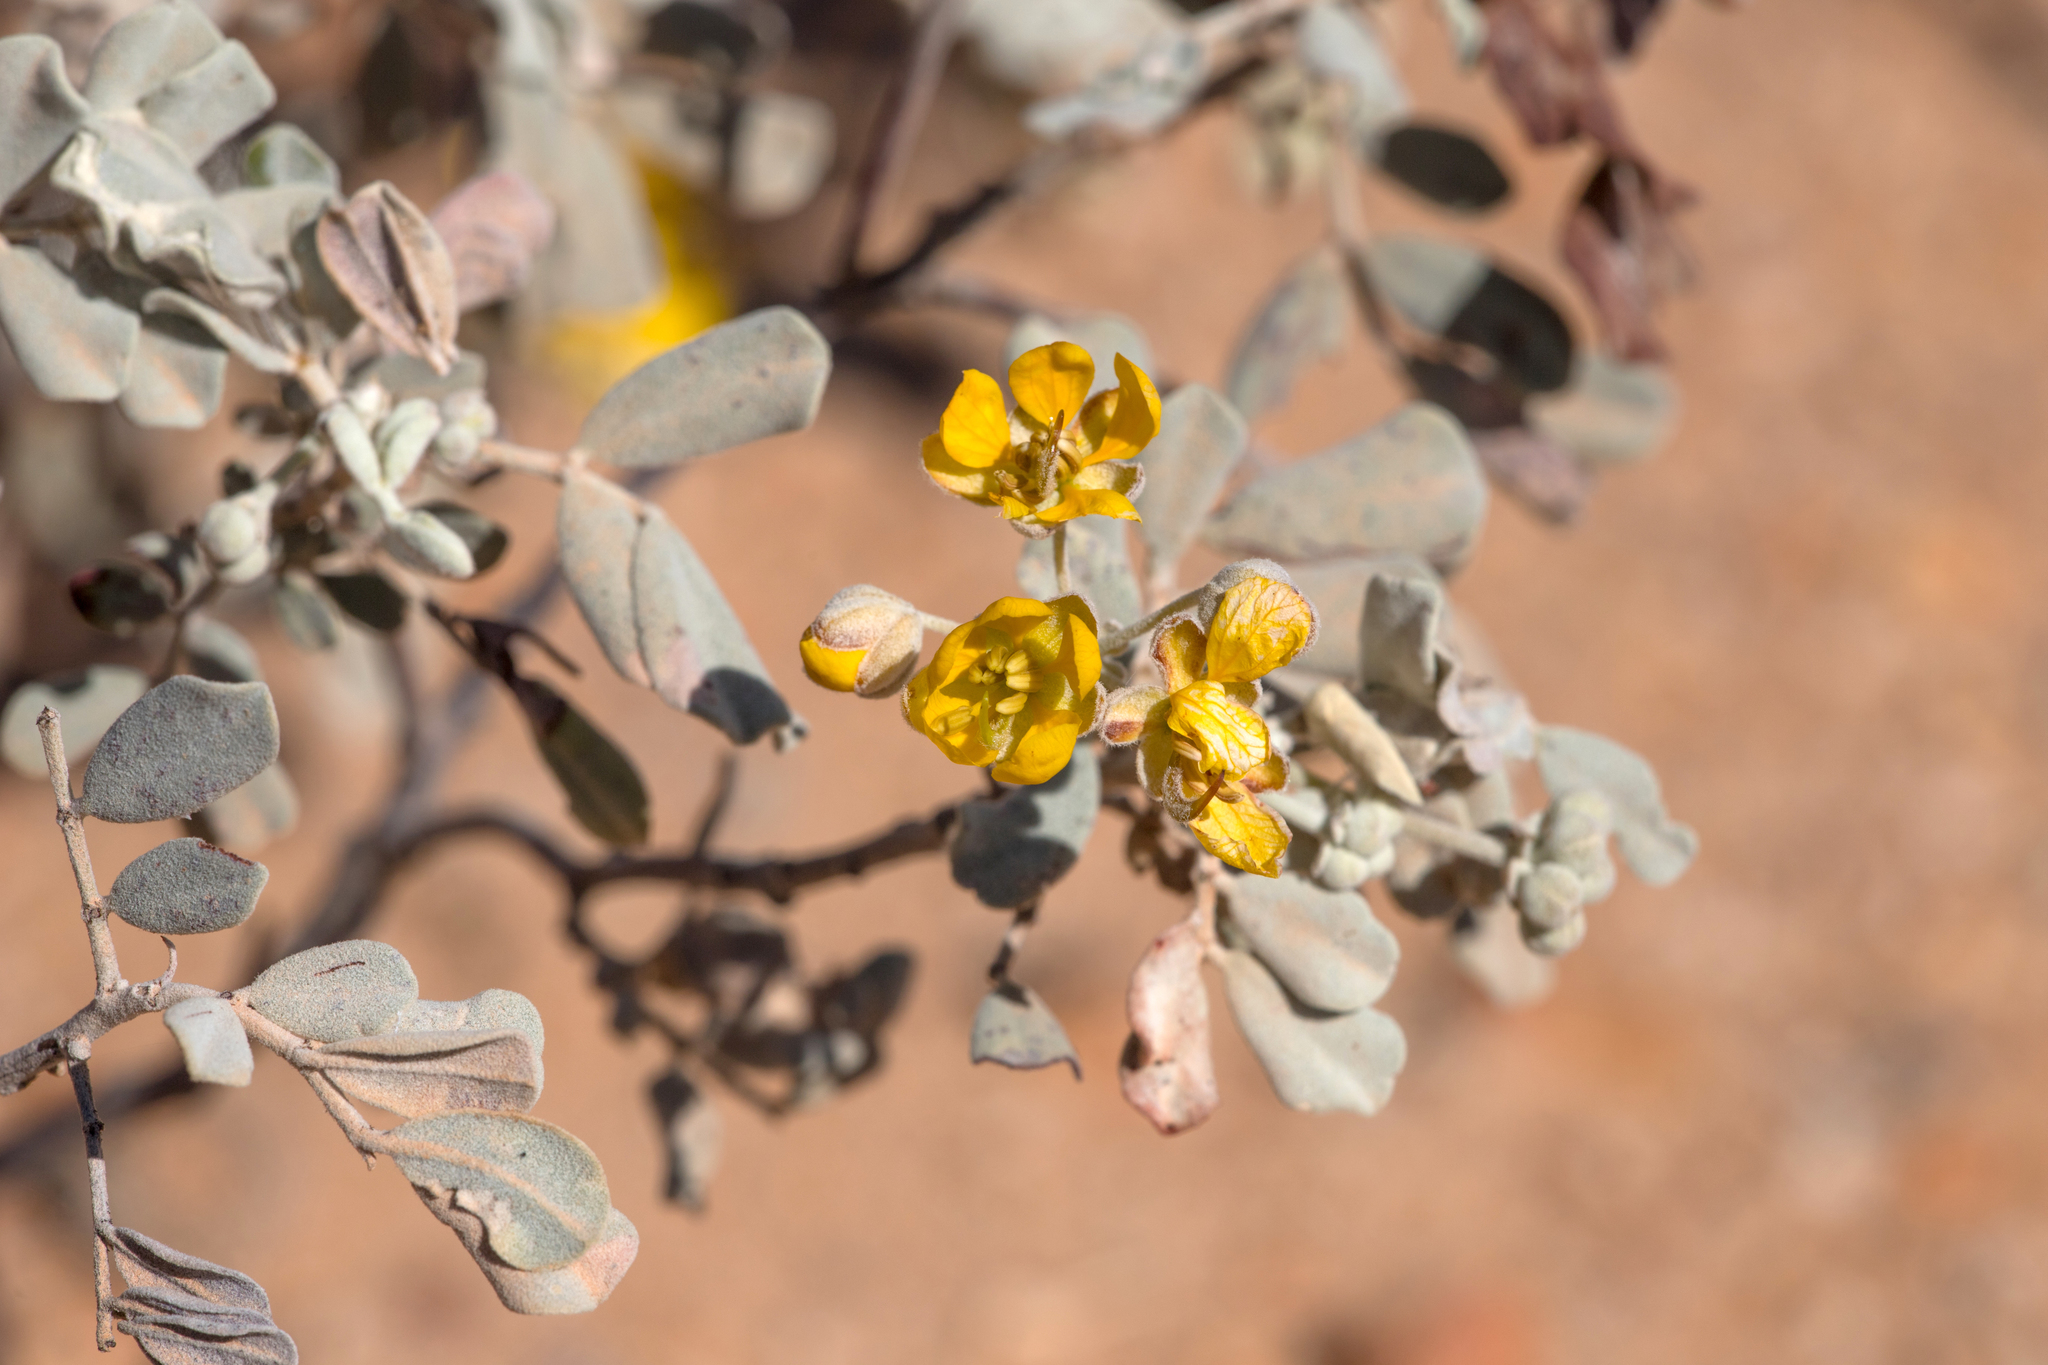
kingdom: Plantae
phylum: Tracheophyta
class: Magnoliopsida
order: Fabales
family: Fabaceae
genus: Senna
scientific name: Senna artemisioides
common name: Burnt-leaved acacia
